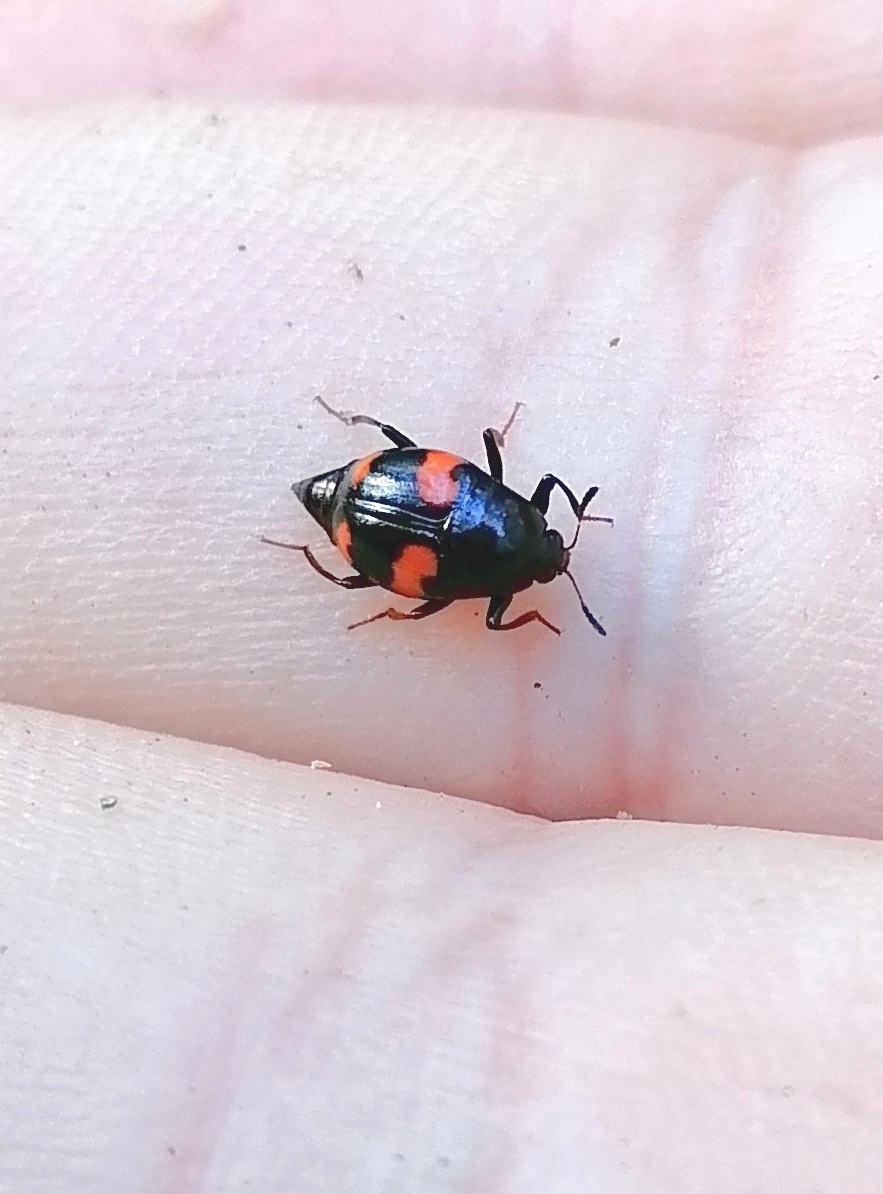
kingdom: Animalia
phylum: Arthropoda
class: Insecta
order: Coleoptera
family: Staphylinidae
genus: Scaphidium
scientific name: Scaphidium quadrimaculatum
